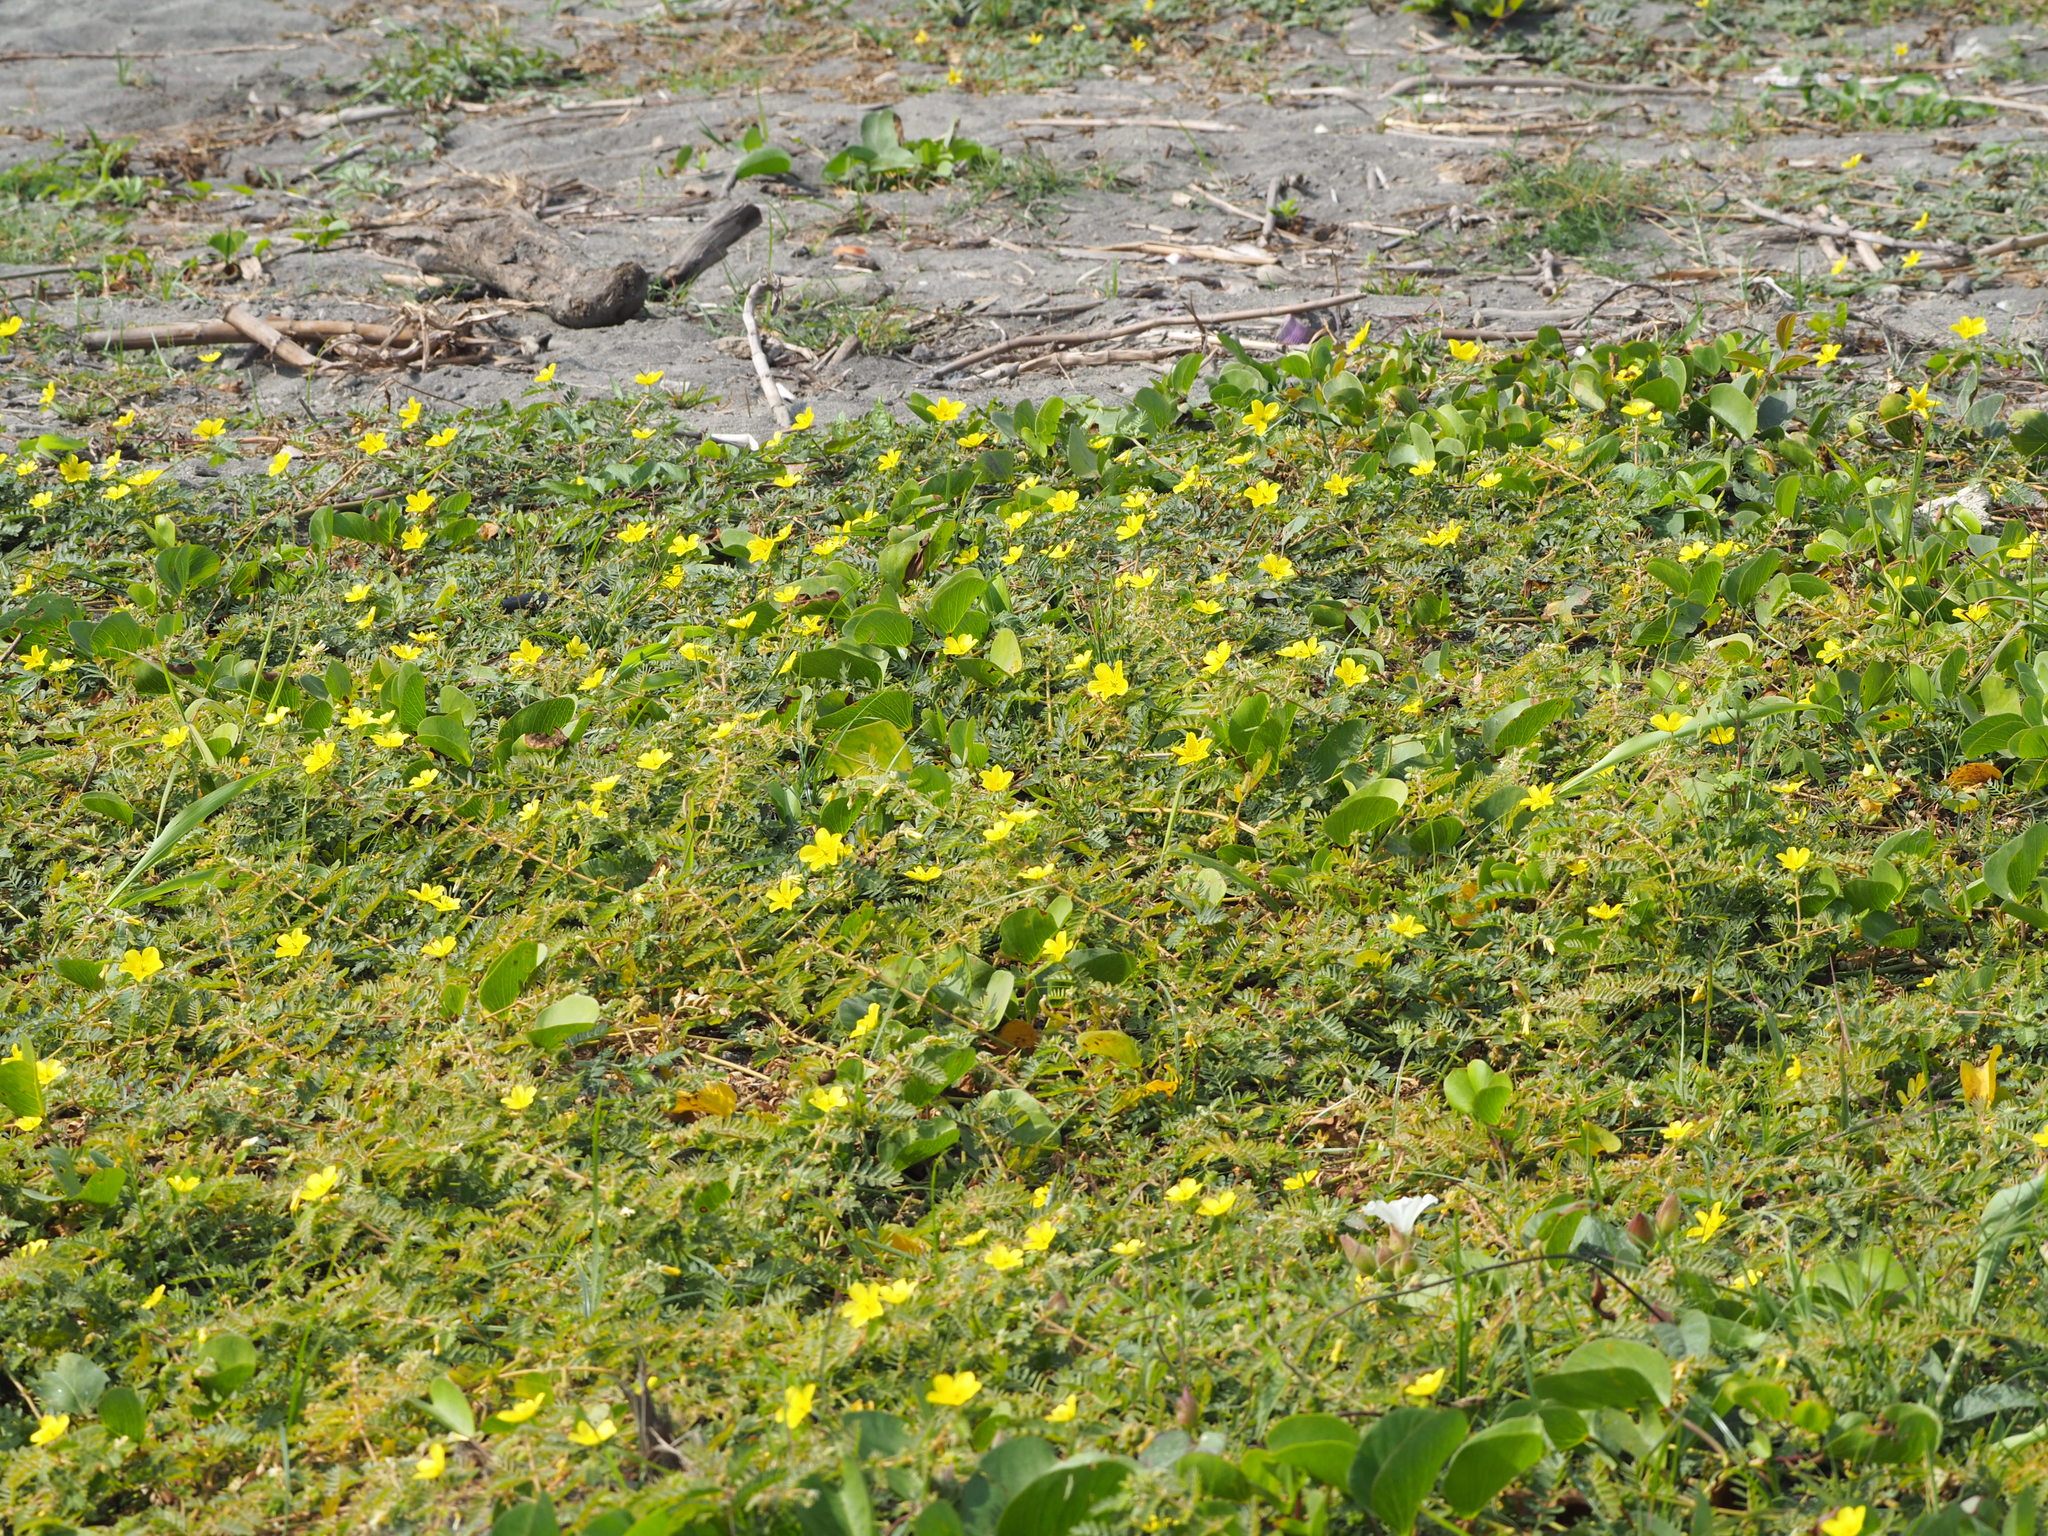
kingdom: Plantae
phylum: Tracheophyta
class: Magnoliopsida
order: Zygophyllales
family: Zygophyllaceae
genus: Tribulus
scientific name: Tribulus cistoides
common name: Jamaican feverplant
